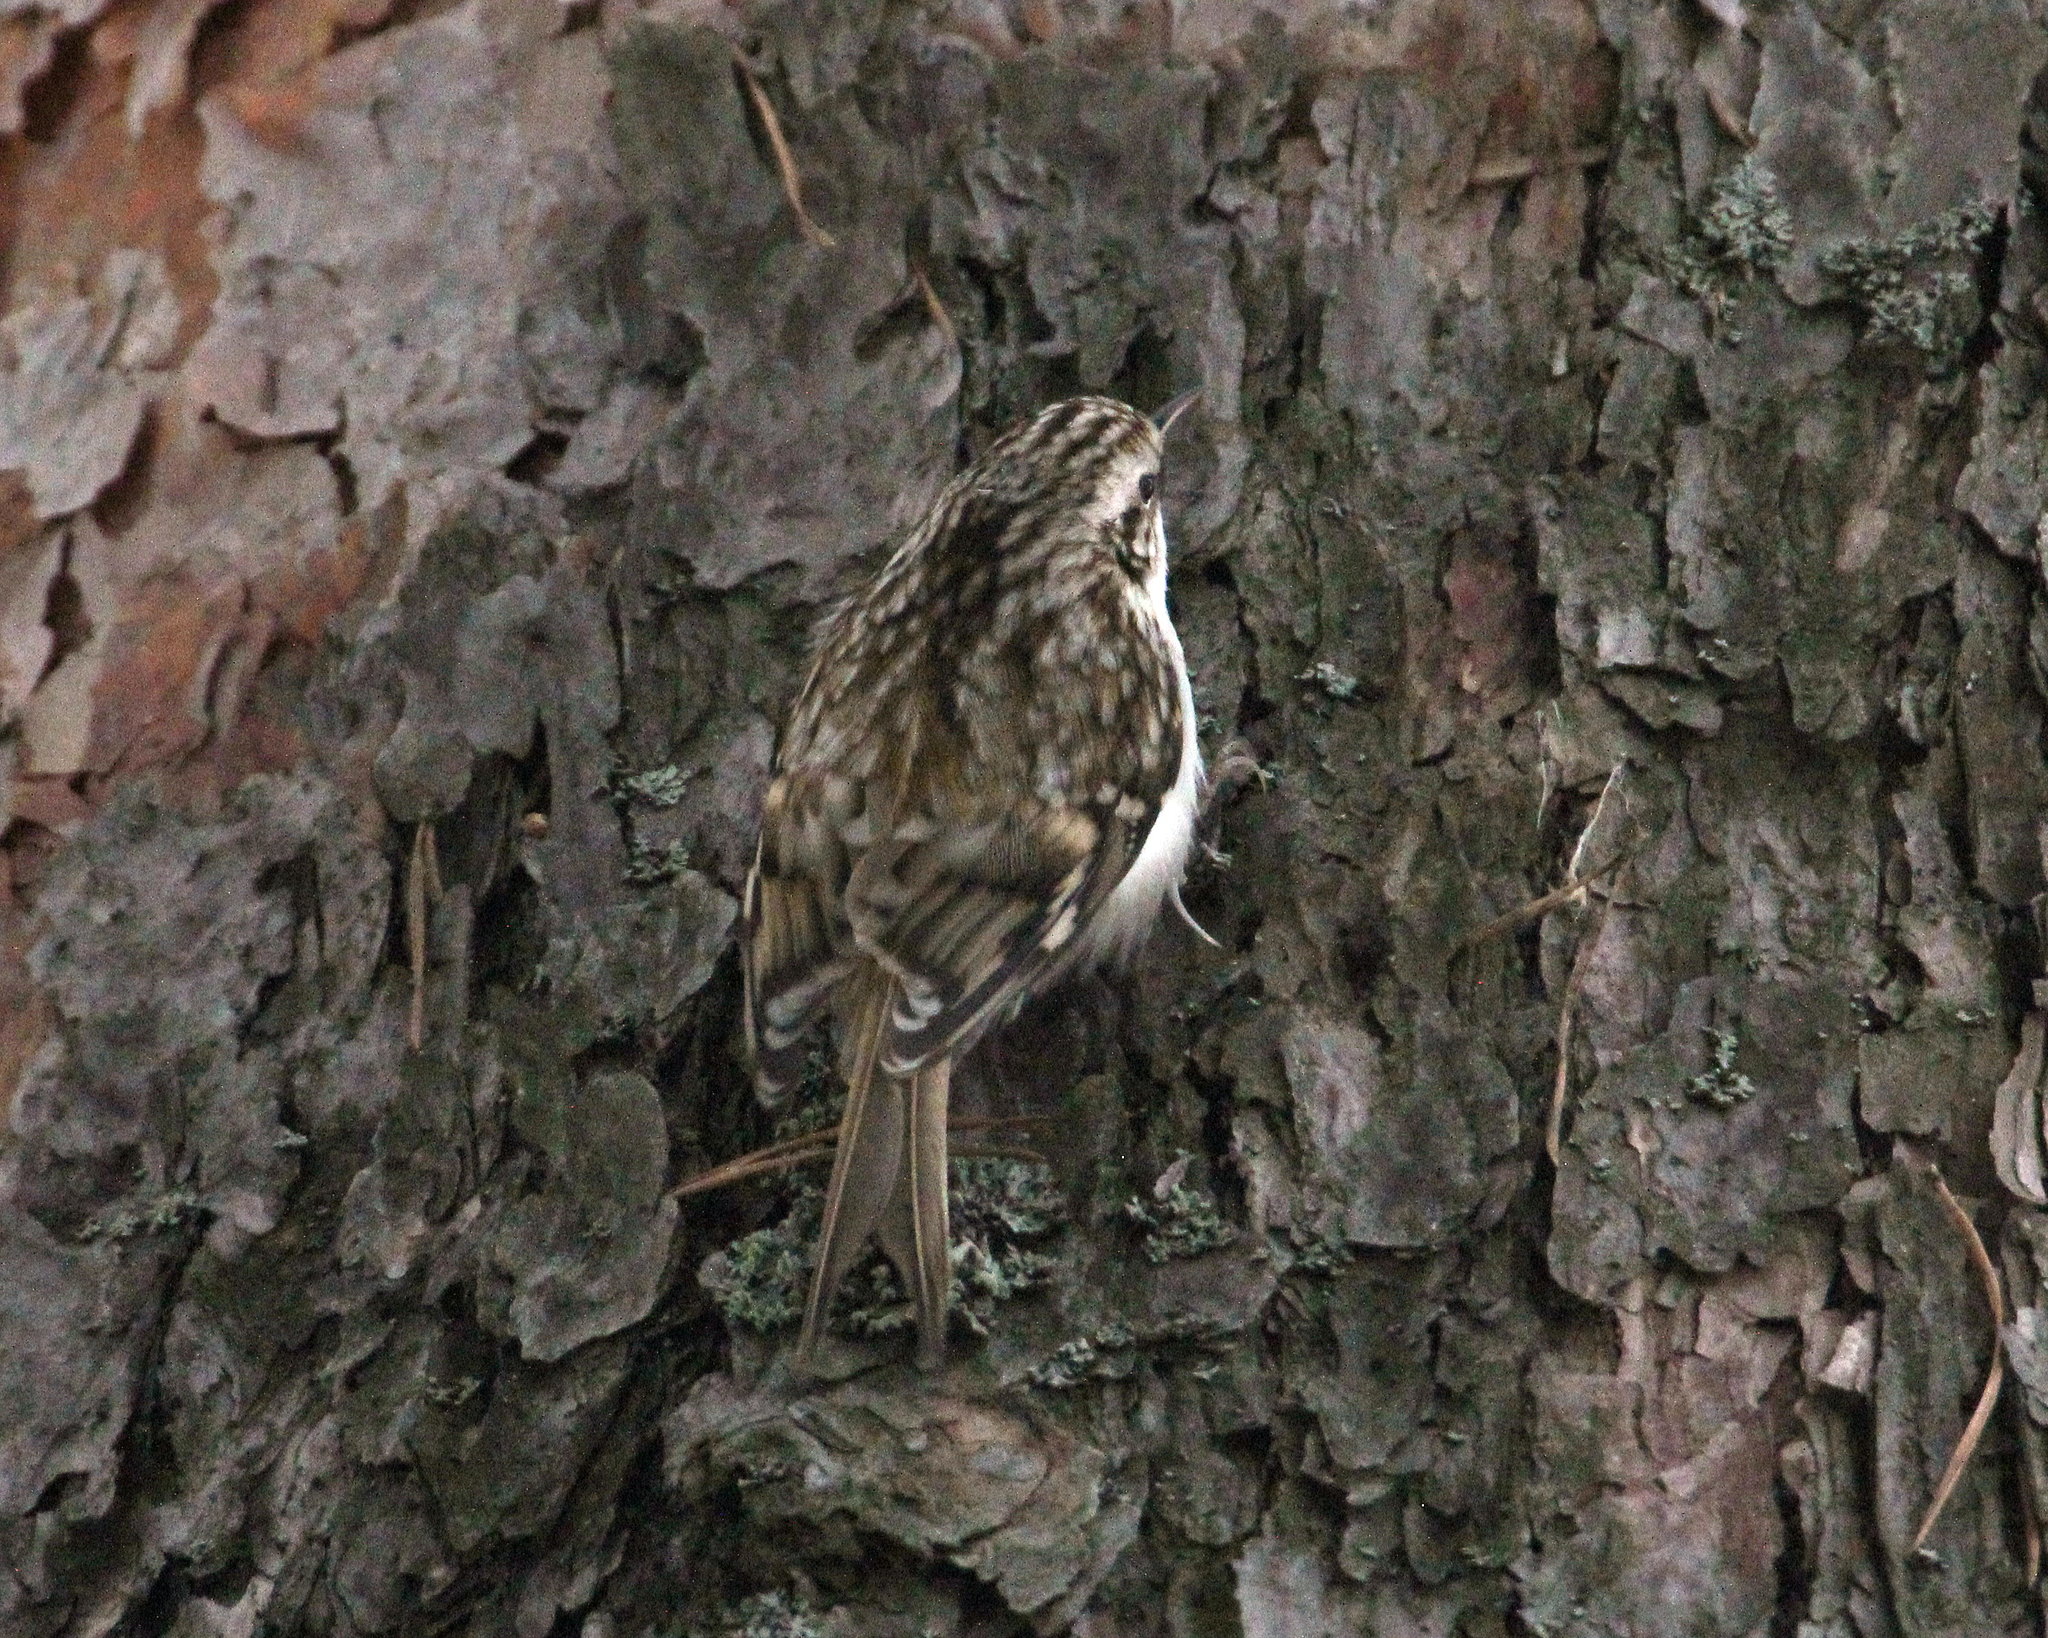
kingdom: Animalia
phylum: Chordata
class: Aves
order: Passeriformes
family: Certhiidae
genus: Certhia
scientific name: Certhia familiaris
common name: Eurasian treecreeper
